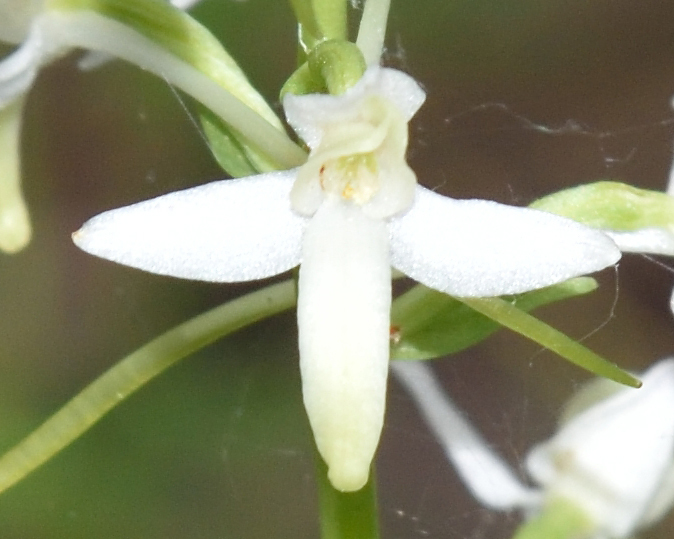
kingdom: Plantae
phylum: Tracheophyta
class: Liliopsida
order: Asparagales
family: Orchidaceae
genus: Platanthera
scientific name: Platanthera bifolia
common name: Lesser butterfly-orchid
